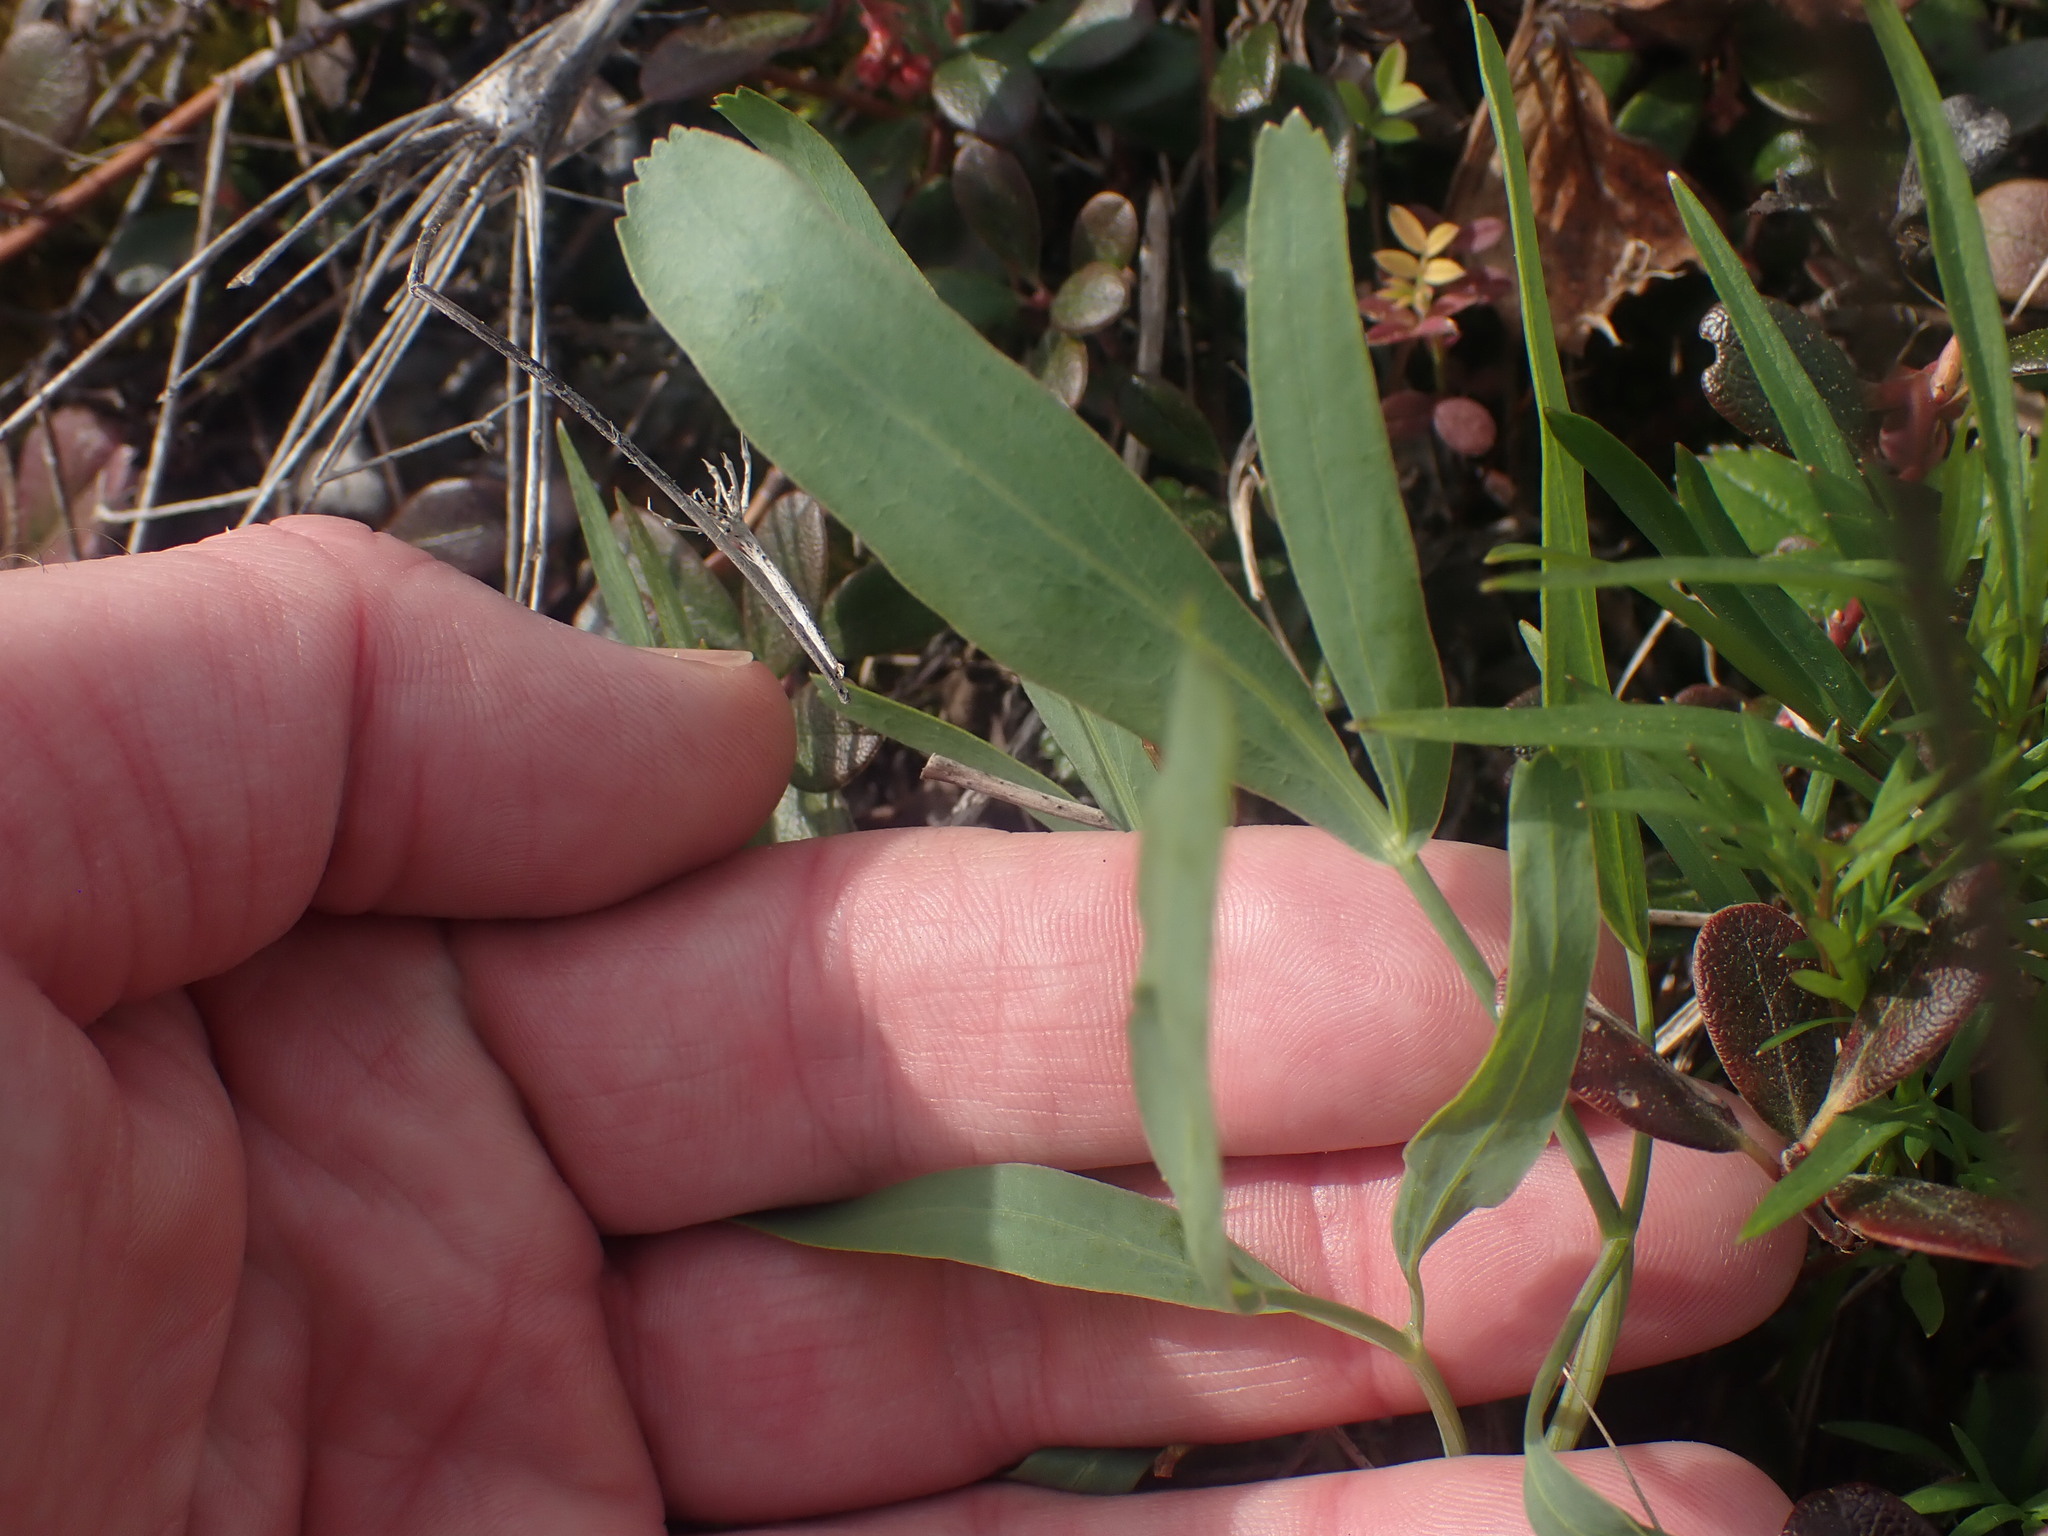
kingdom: Plantae
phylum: Tracheophyta
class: Magnoliopsida
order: Apiales
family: Apiaceae
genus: Lomatium
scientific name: Lomatium nudicaule
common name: Pestle lomatium
